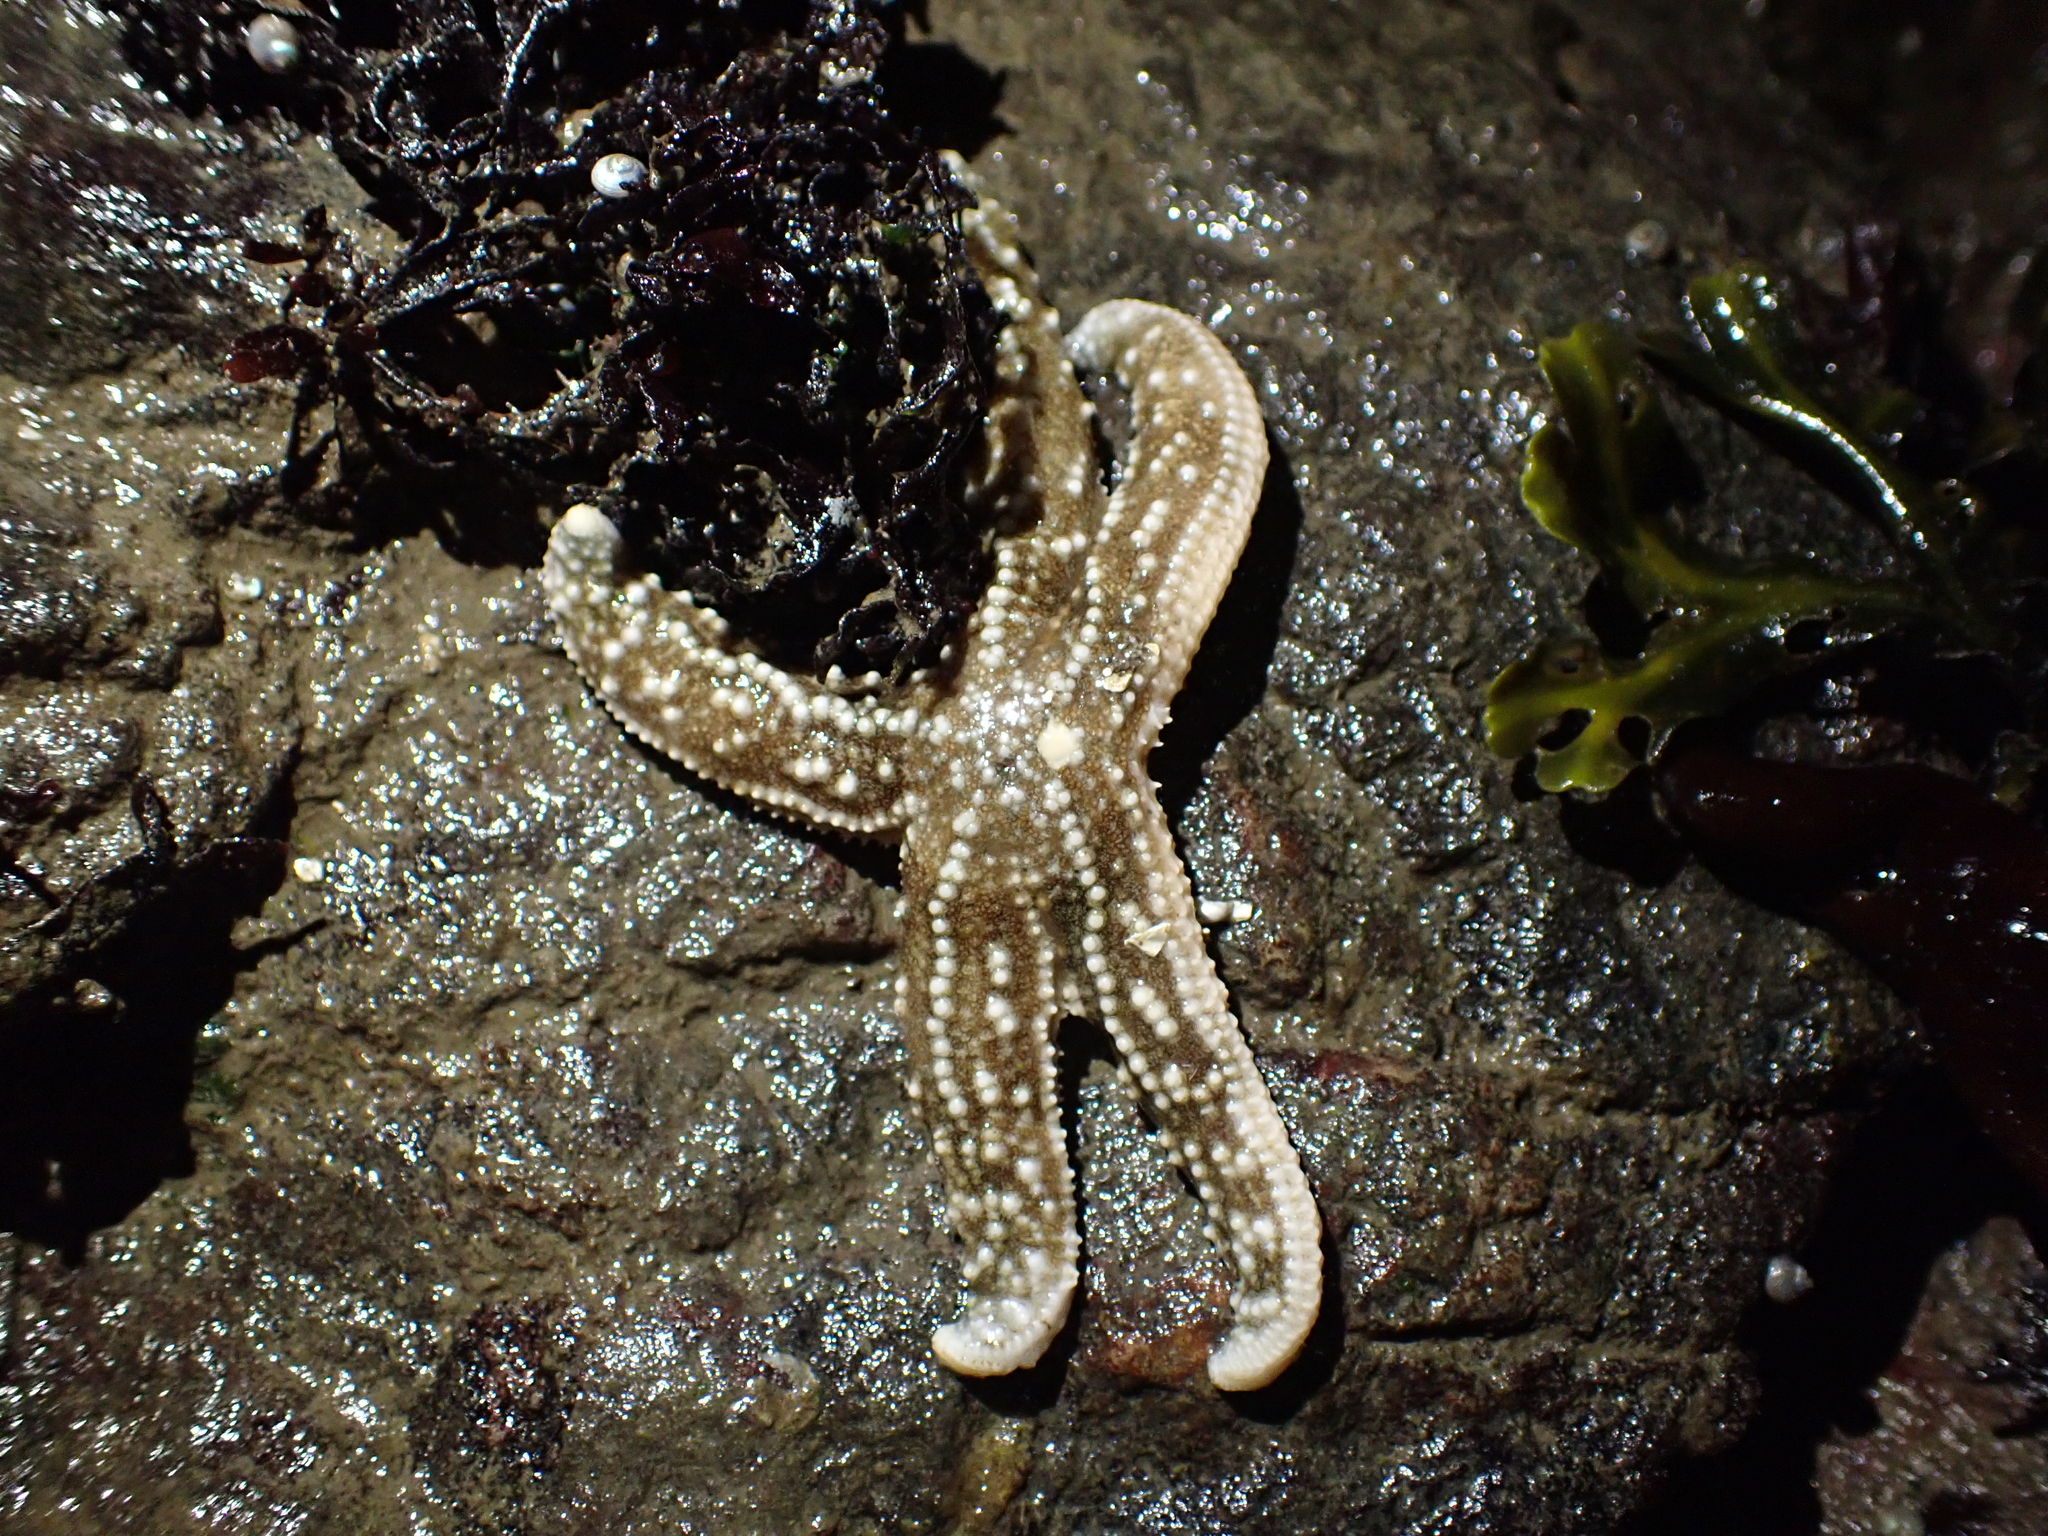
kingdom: Animalia
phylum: Echinodermata
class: Asteroidea
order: Forcipulatida
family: Asteriidae
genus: Evasterias
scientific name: Evasterias troschelii
